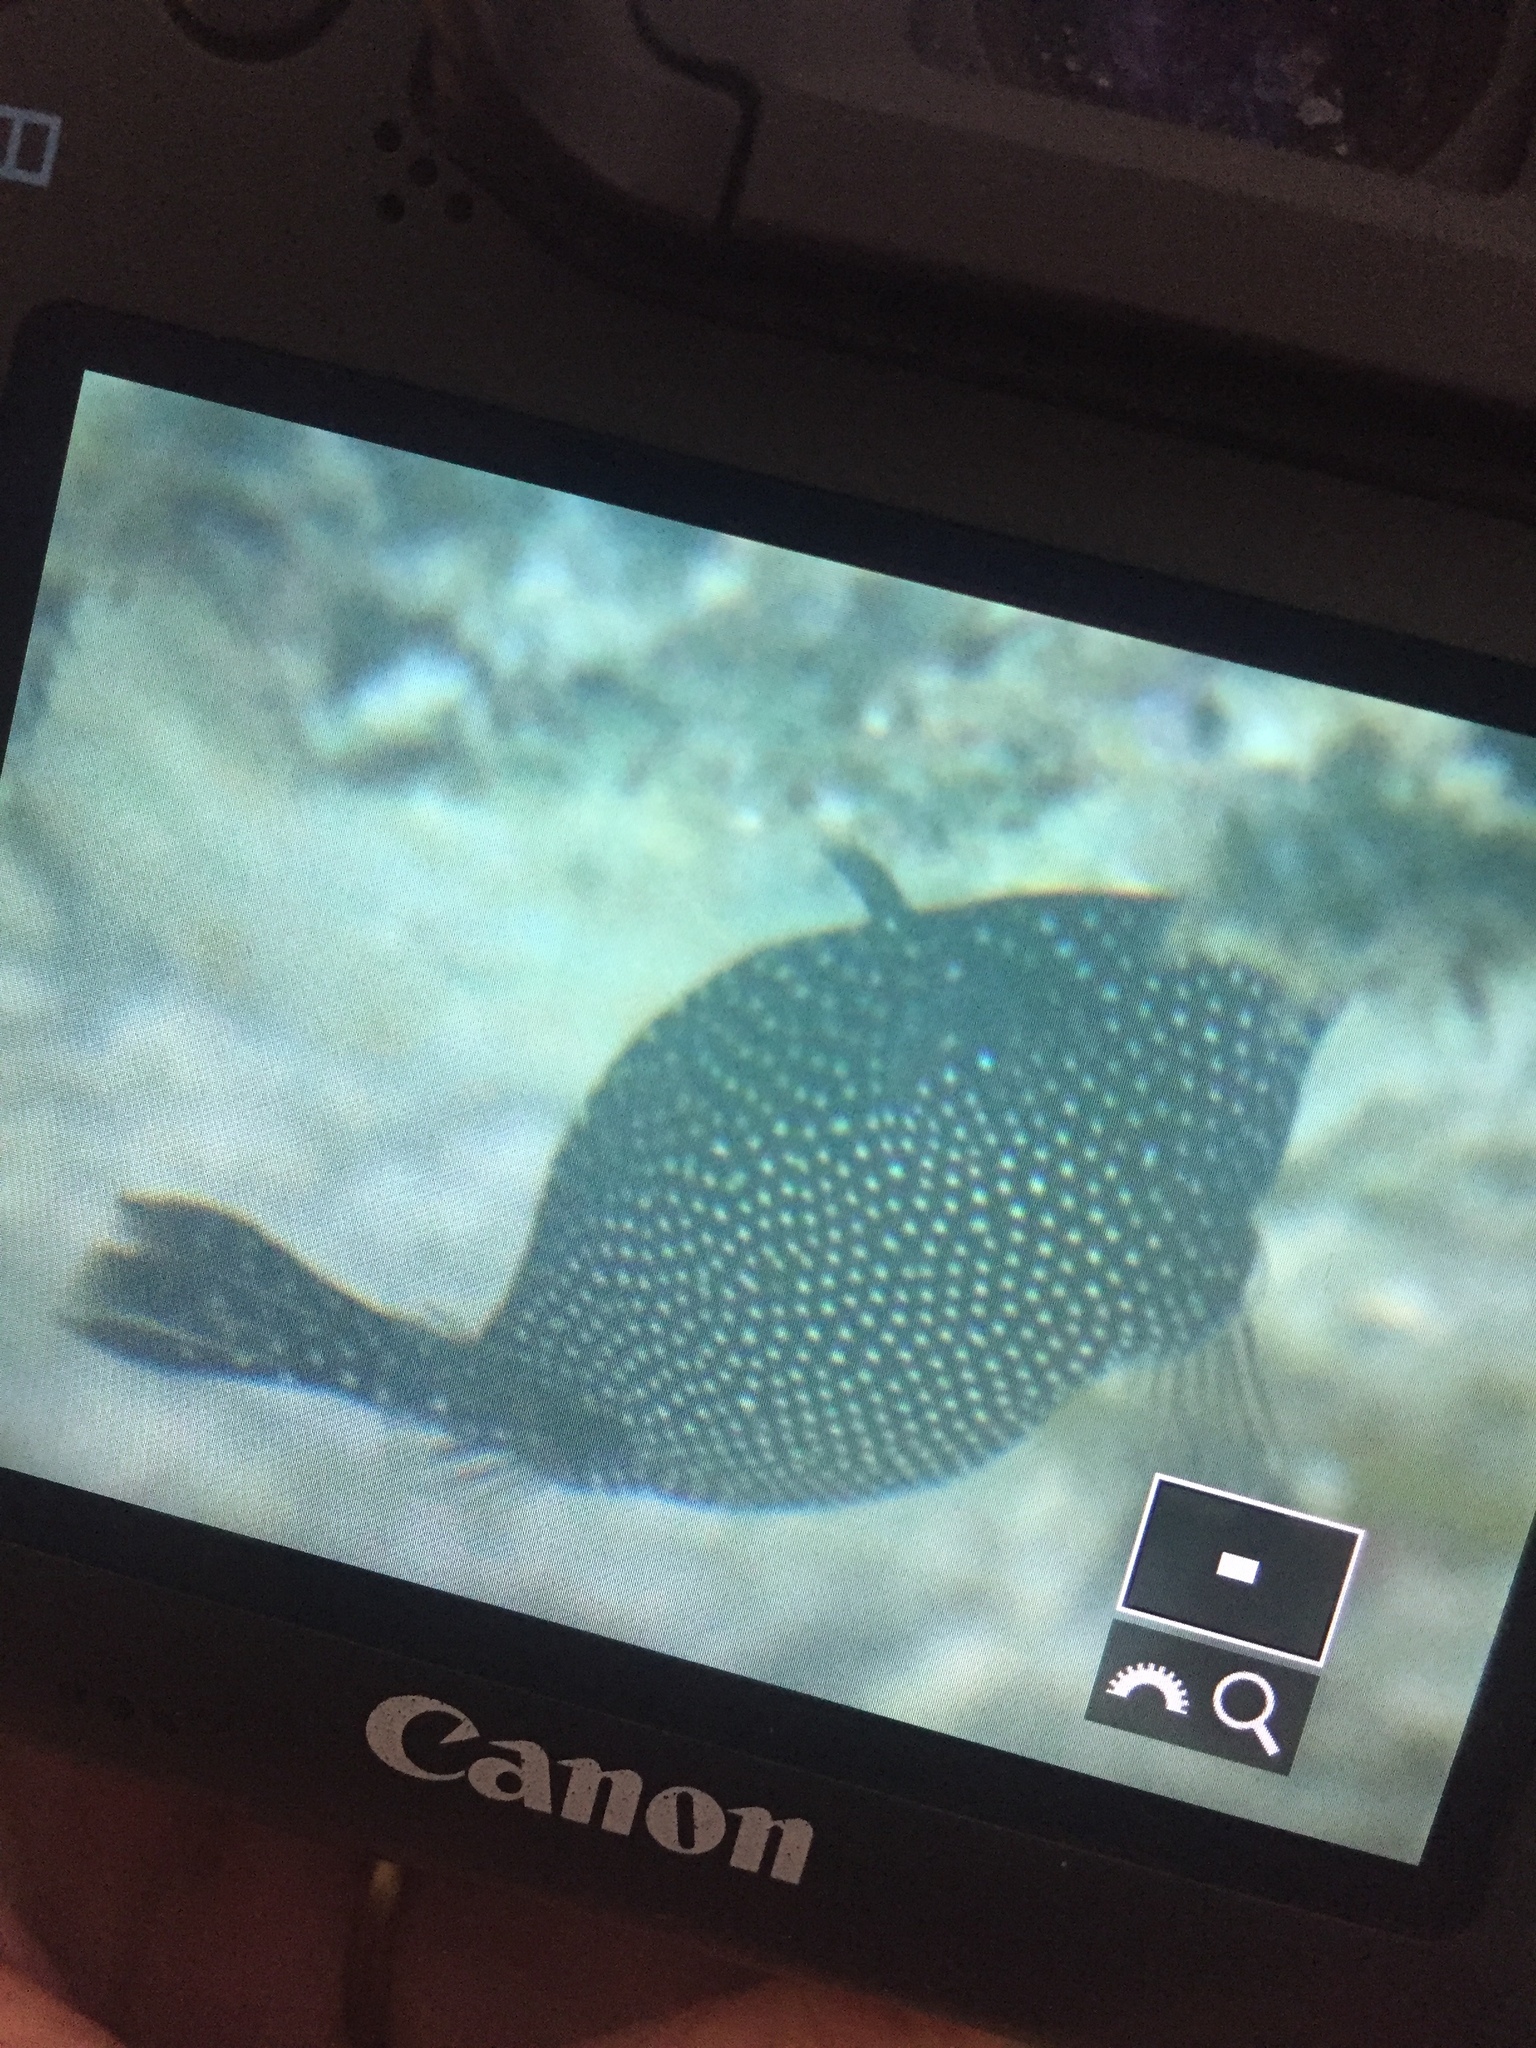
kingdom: Animalia
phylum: Chordata
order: Tetraodontiformes
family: Ostraciidae
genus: Ostracion
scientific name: Ostracion meleagris
